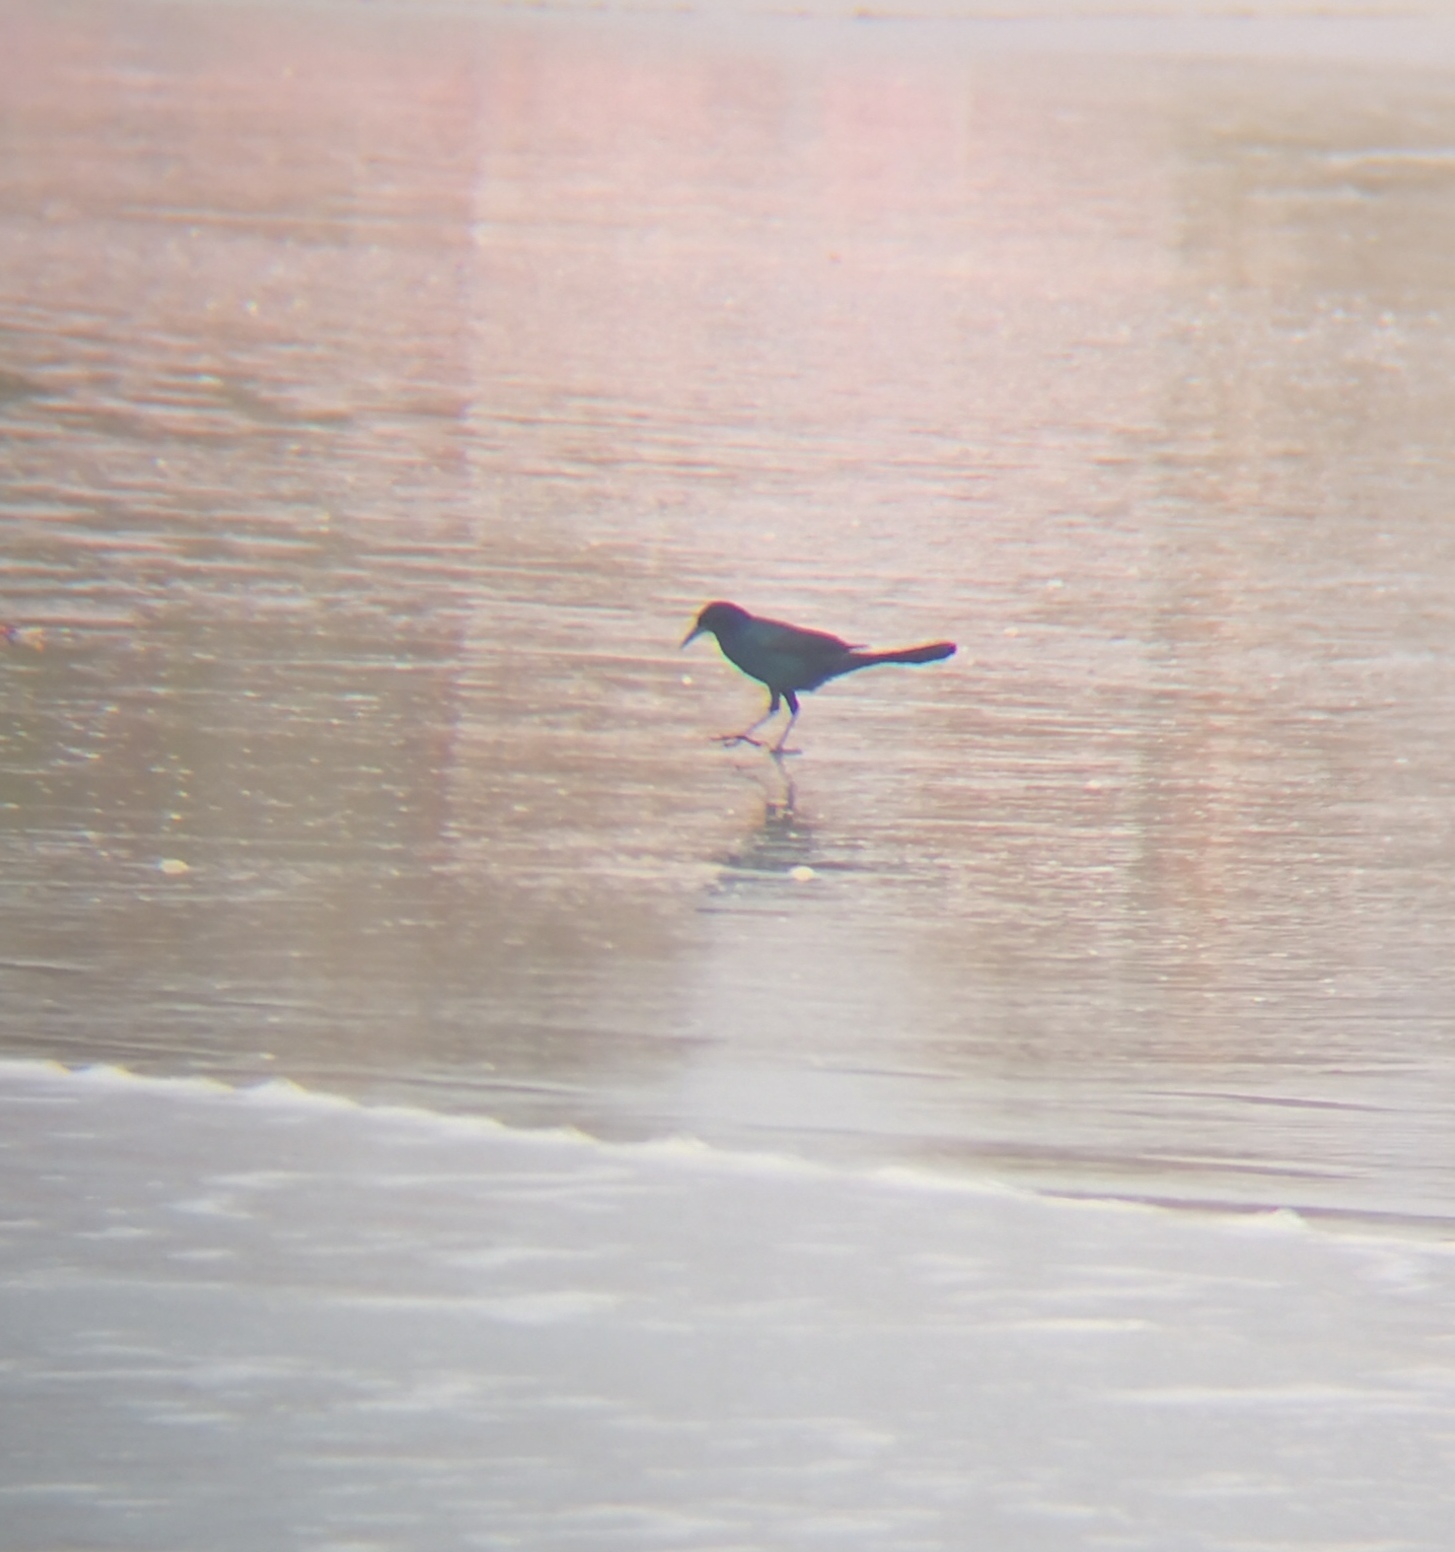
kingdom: Animalia
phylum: Chordata
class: Aves
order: Passeriformes
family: Icteridae
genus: Quiscalus
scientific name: Quiscalus major
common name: Boat-tailed grackle
